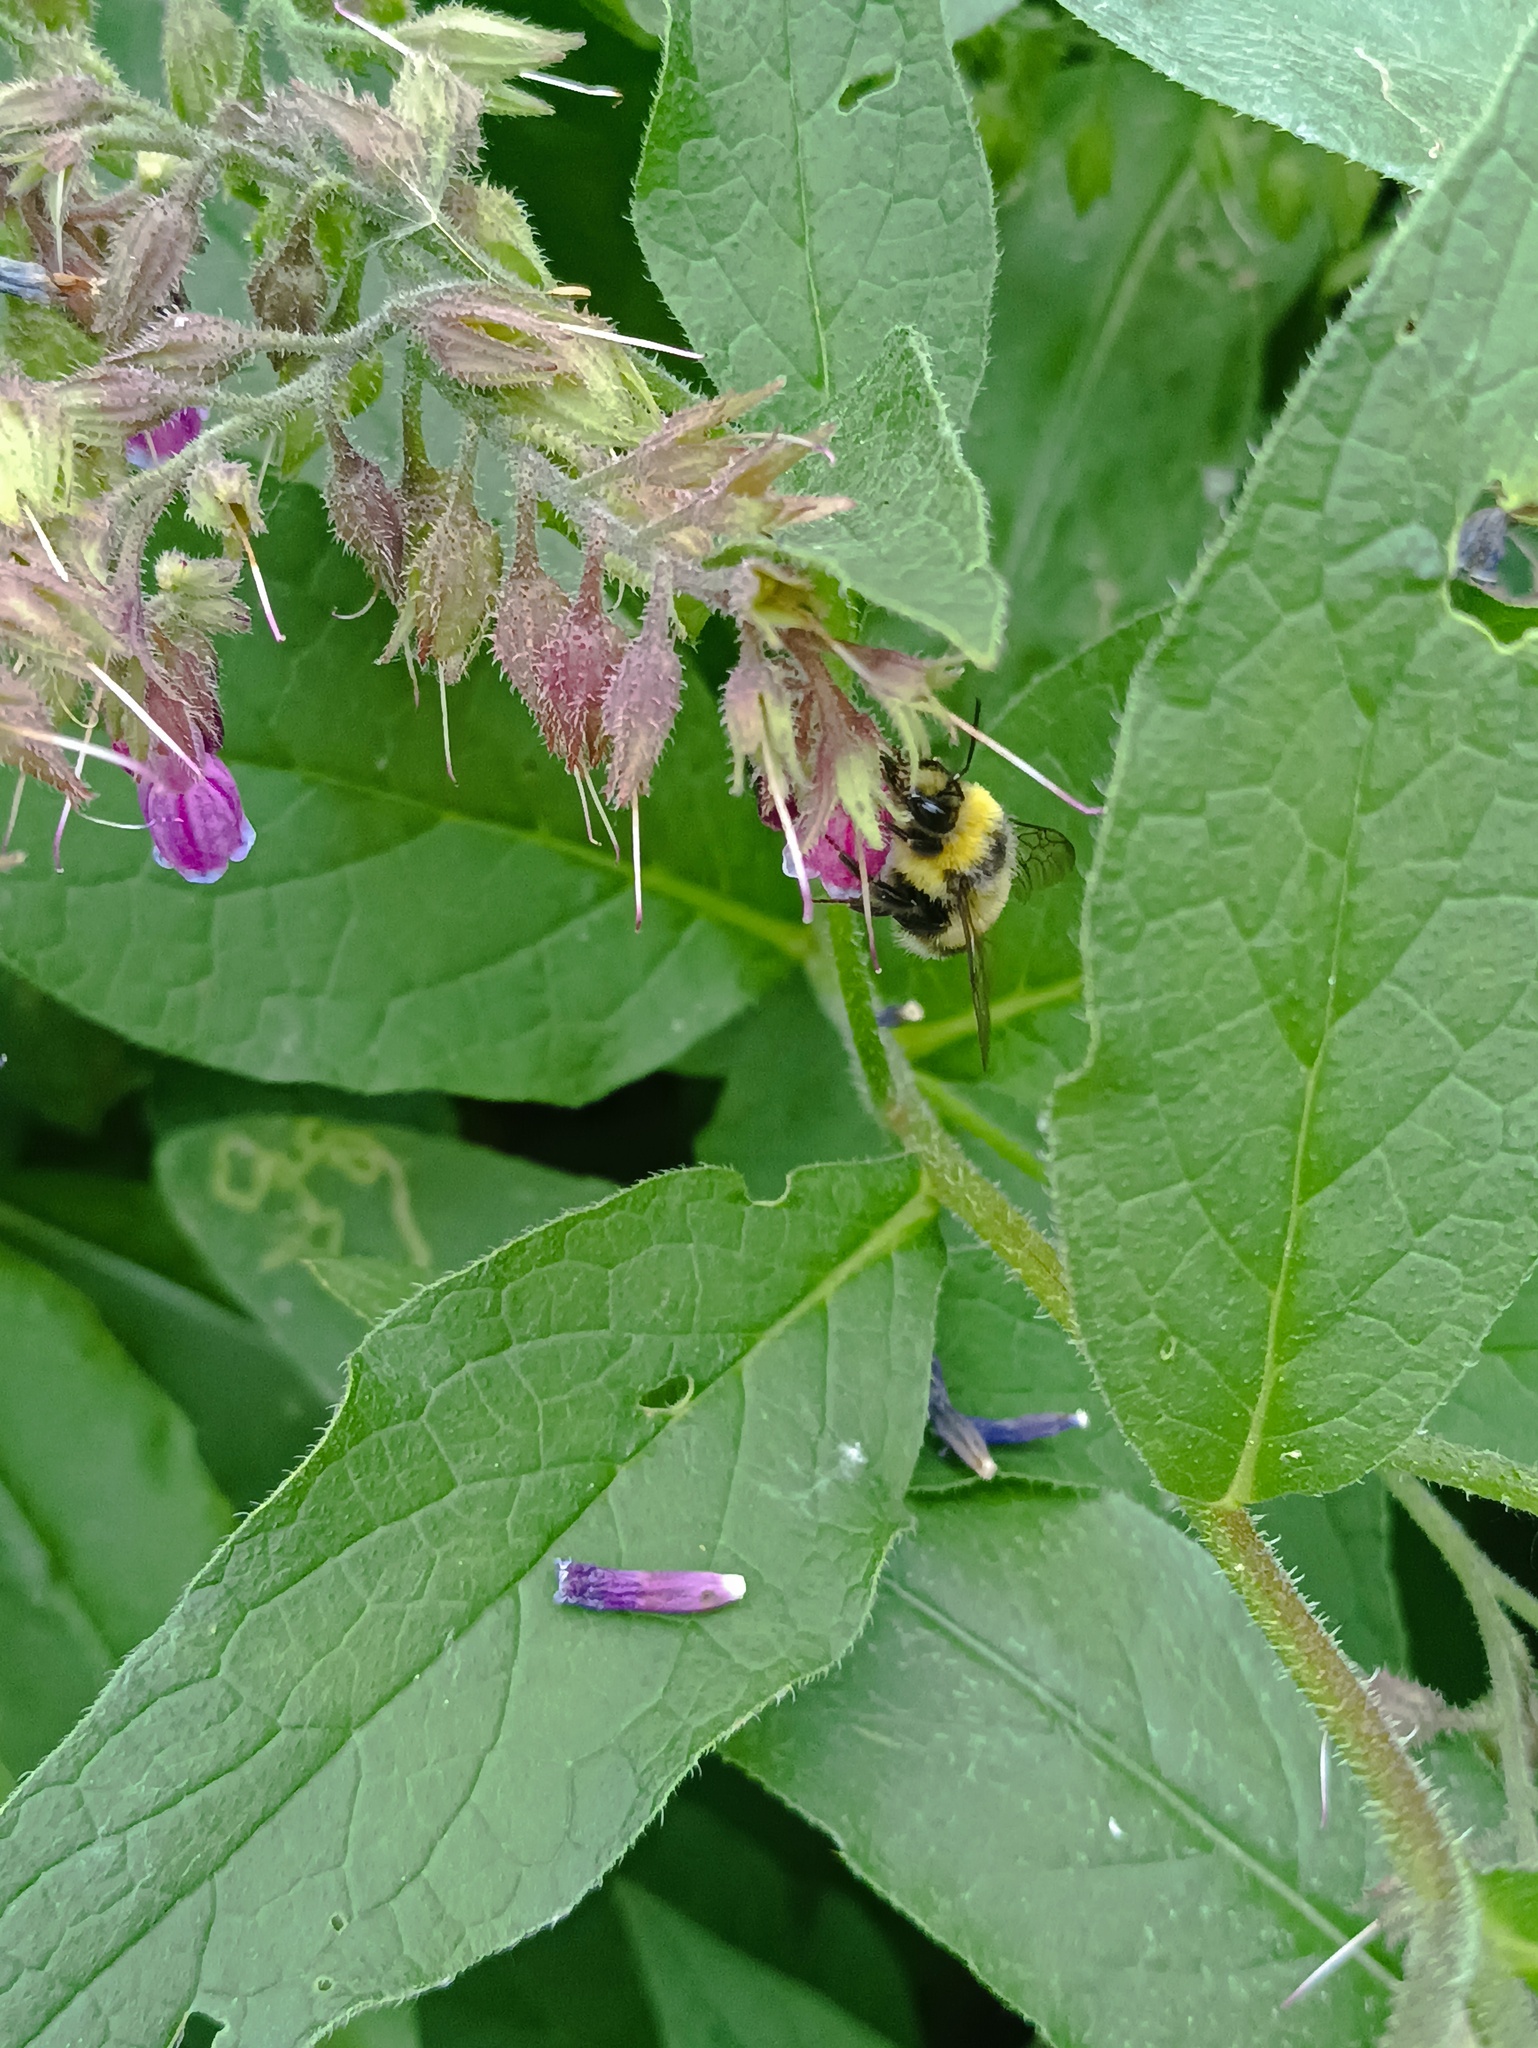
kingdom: Animalia
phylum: Arthropoda
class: Insecta
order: Hymenoptera
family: Apidae
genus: Bombus
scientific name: Bombus lucorum
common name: White-tailed bumblebee
